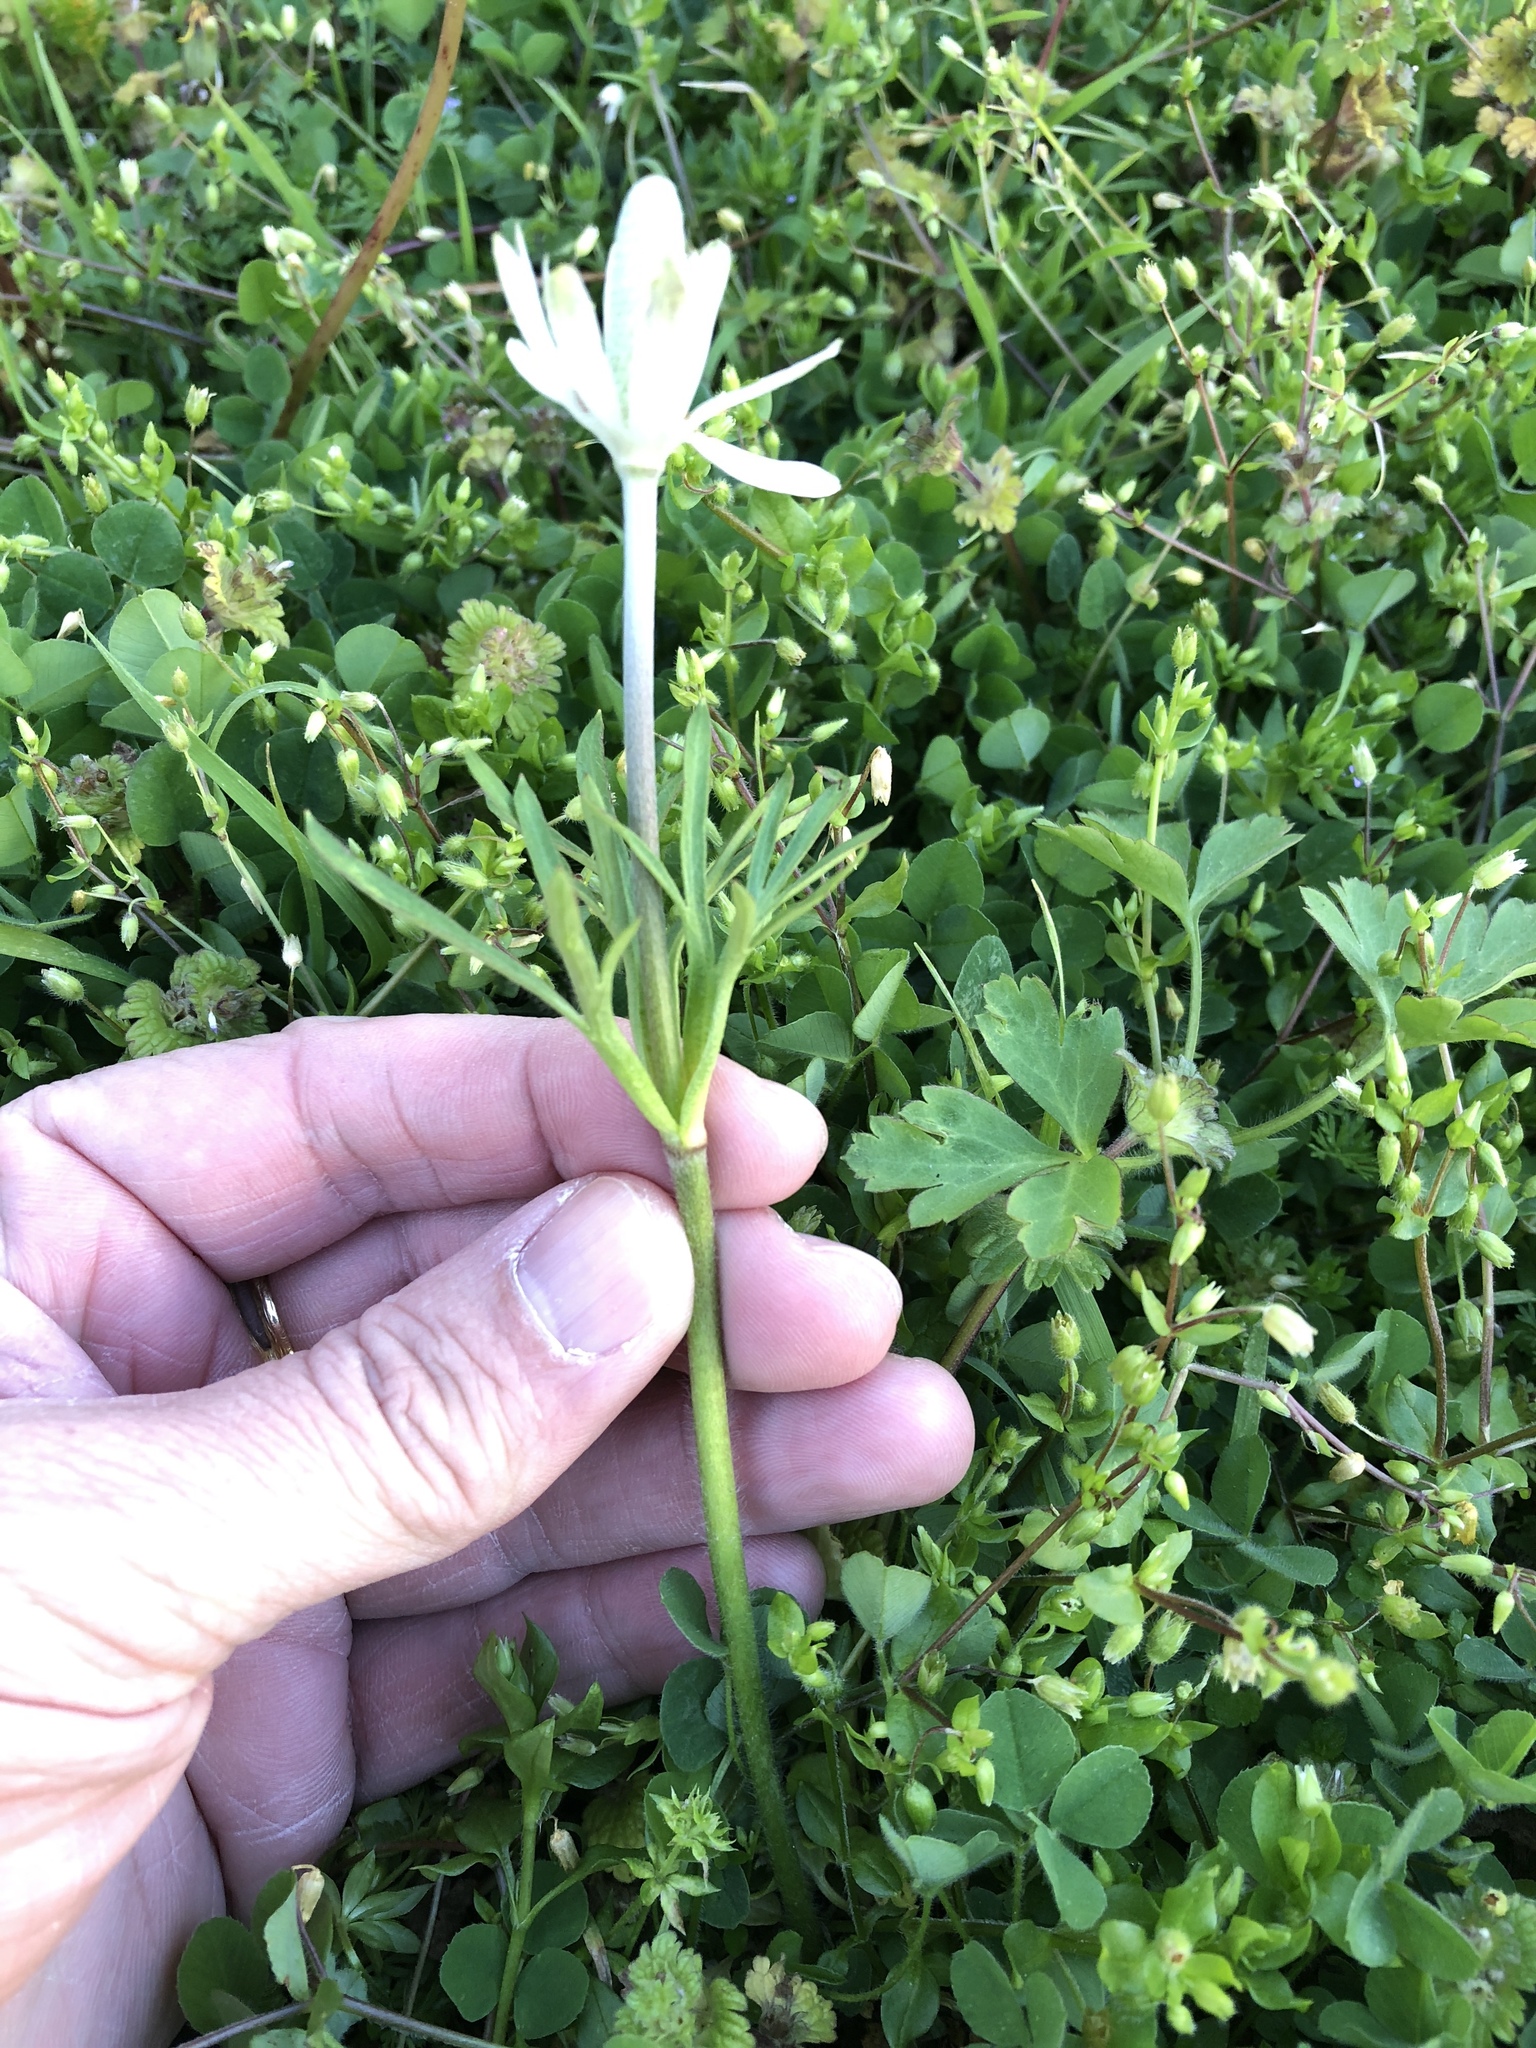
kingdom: Plantae
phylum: Tracheophyta
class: Magnoliopsida
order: Ranunculales
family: Ranunculaceae
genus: Anemone
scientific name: Anemone berlandieri
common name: Ten-petal anemone
